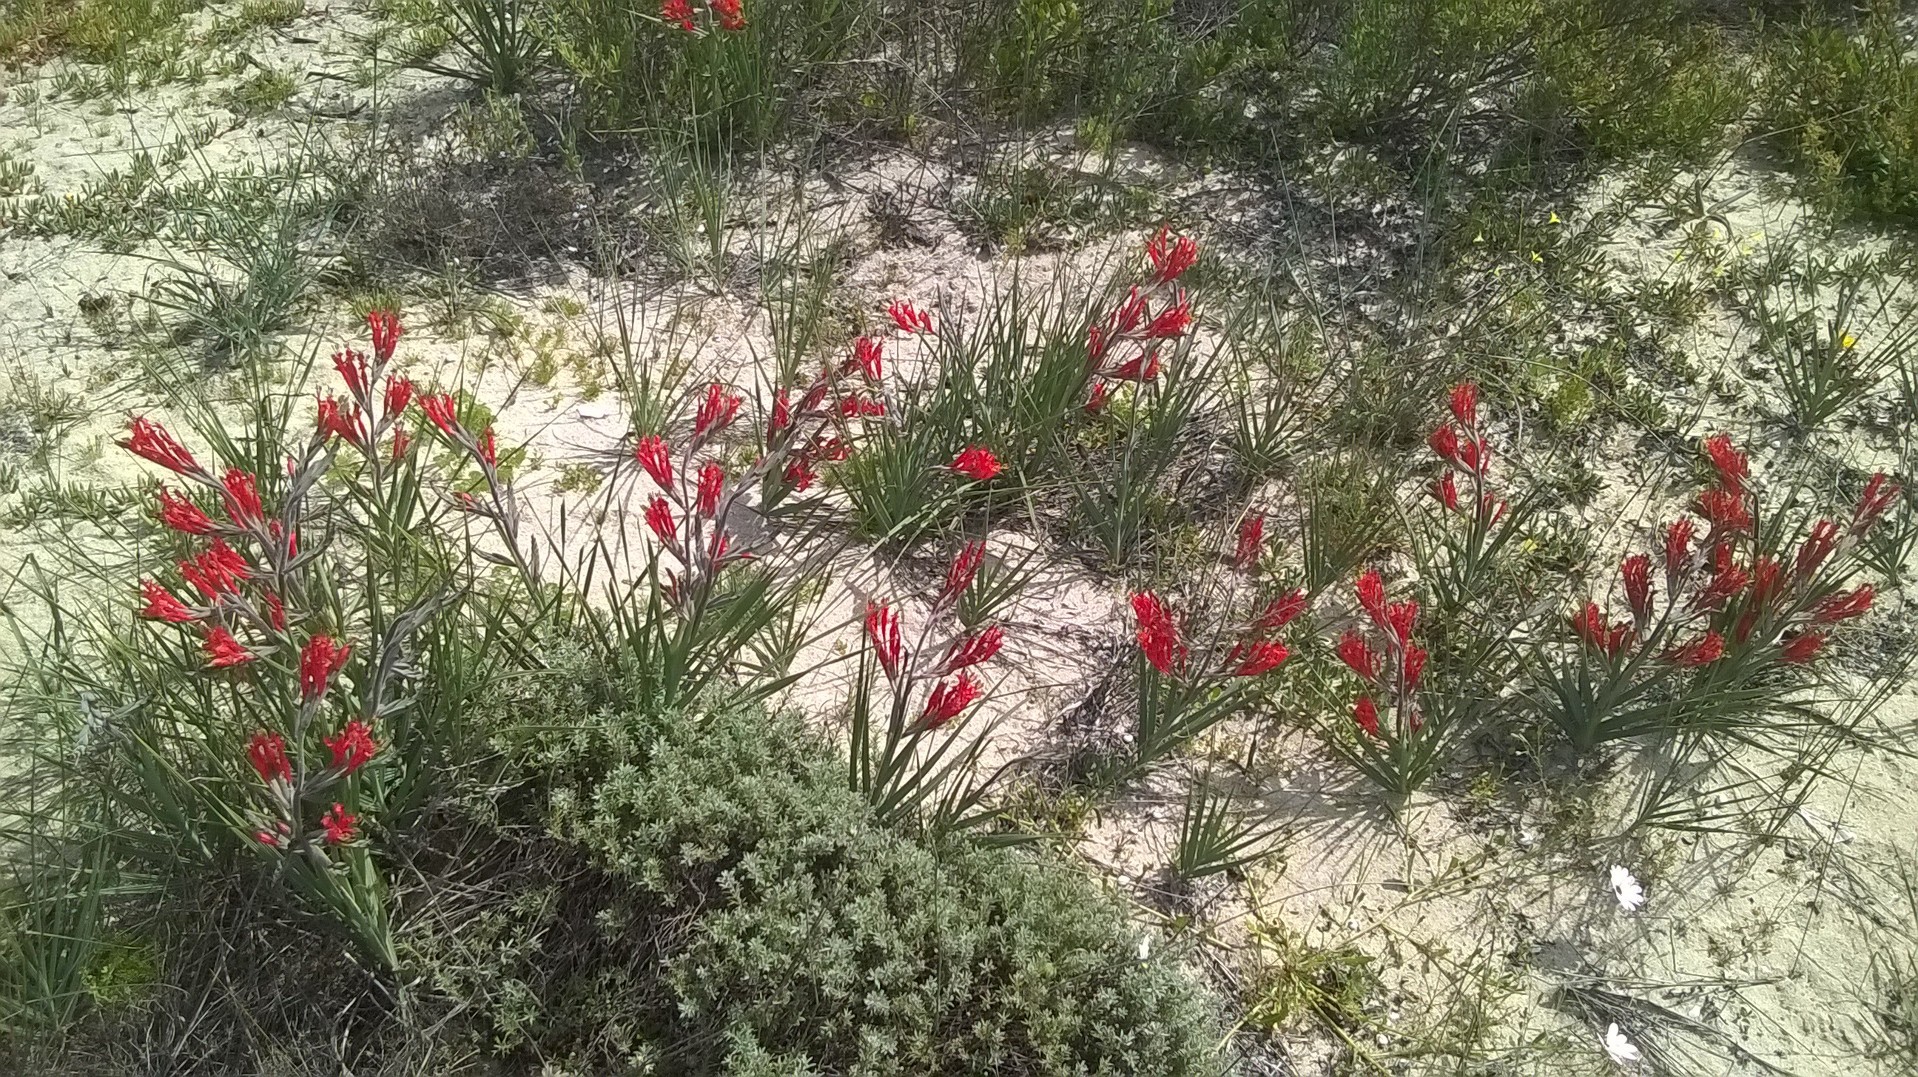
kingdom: Plantae
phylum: Tracheophyta
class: Liliopsida
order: Asparagales
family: Iridaceae
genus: Babiana
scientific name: Babiana hirsuta
